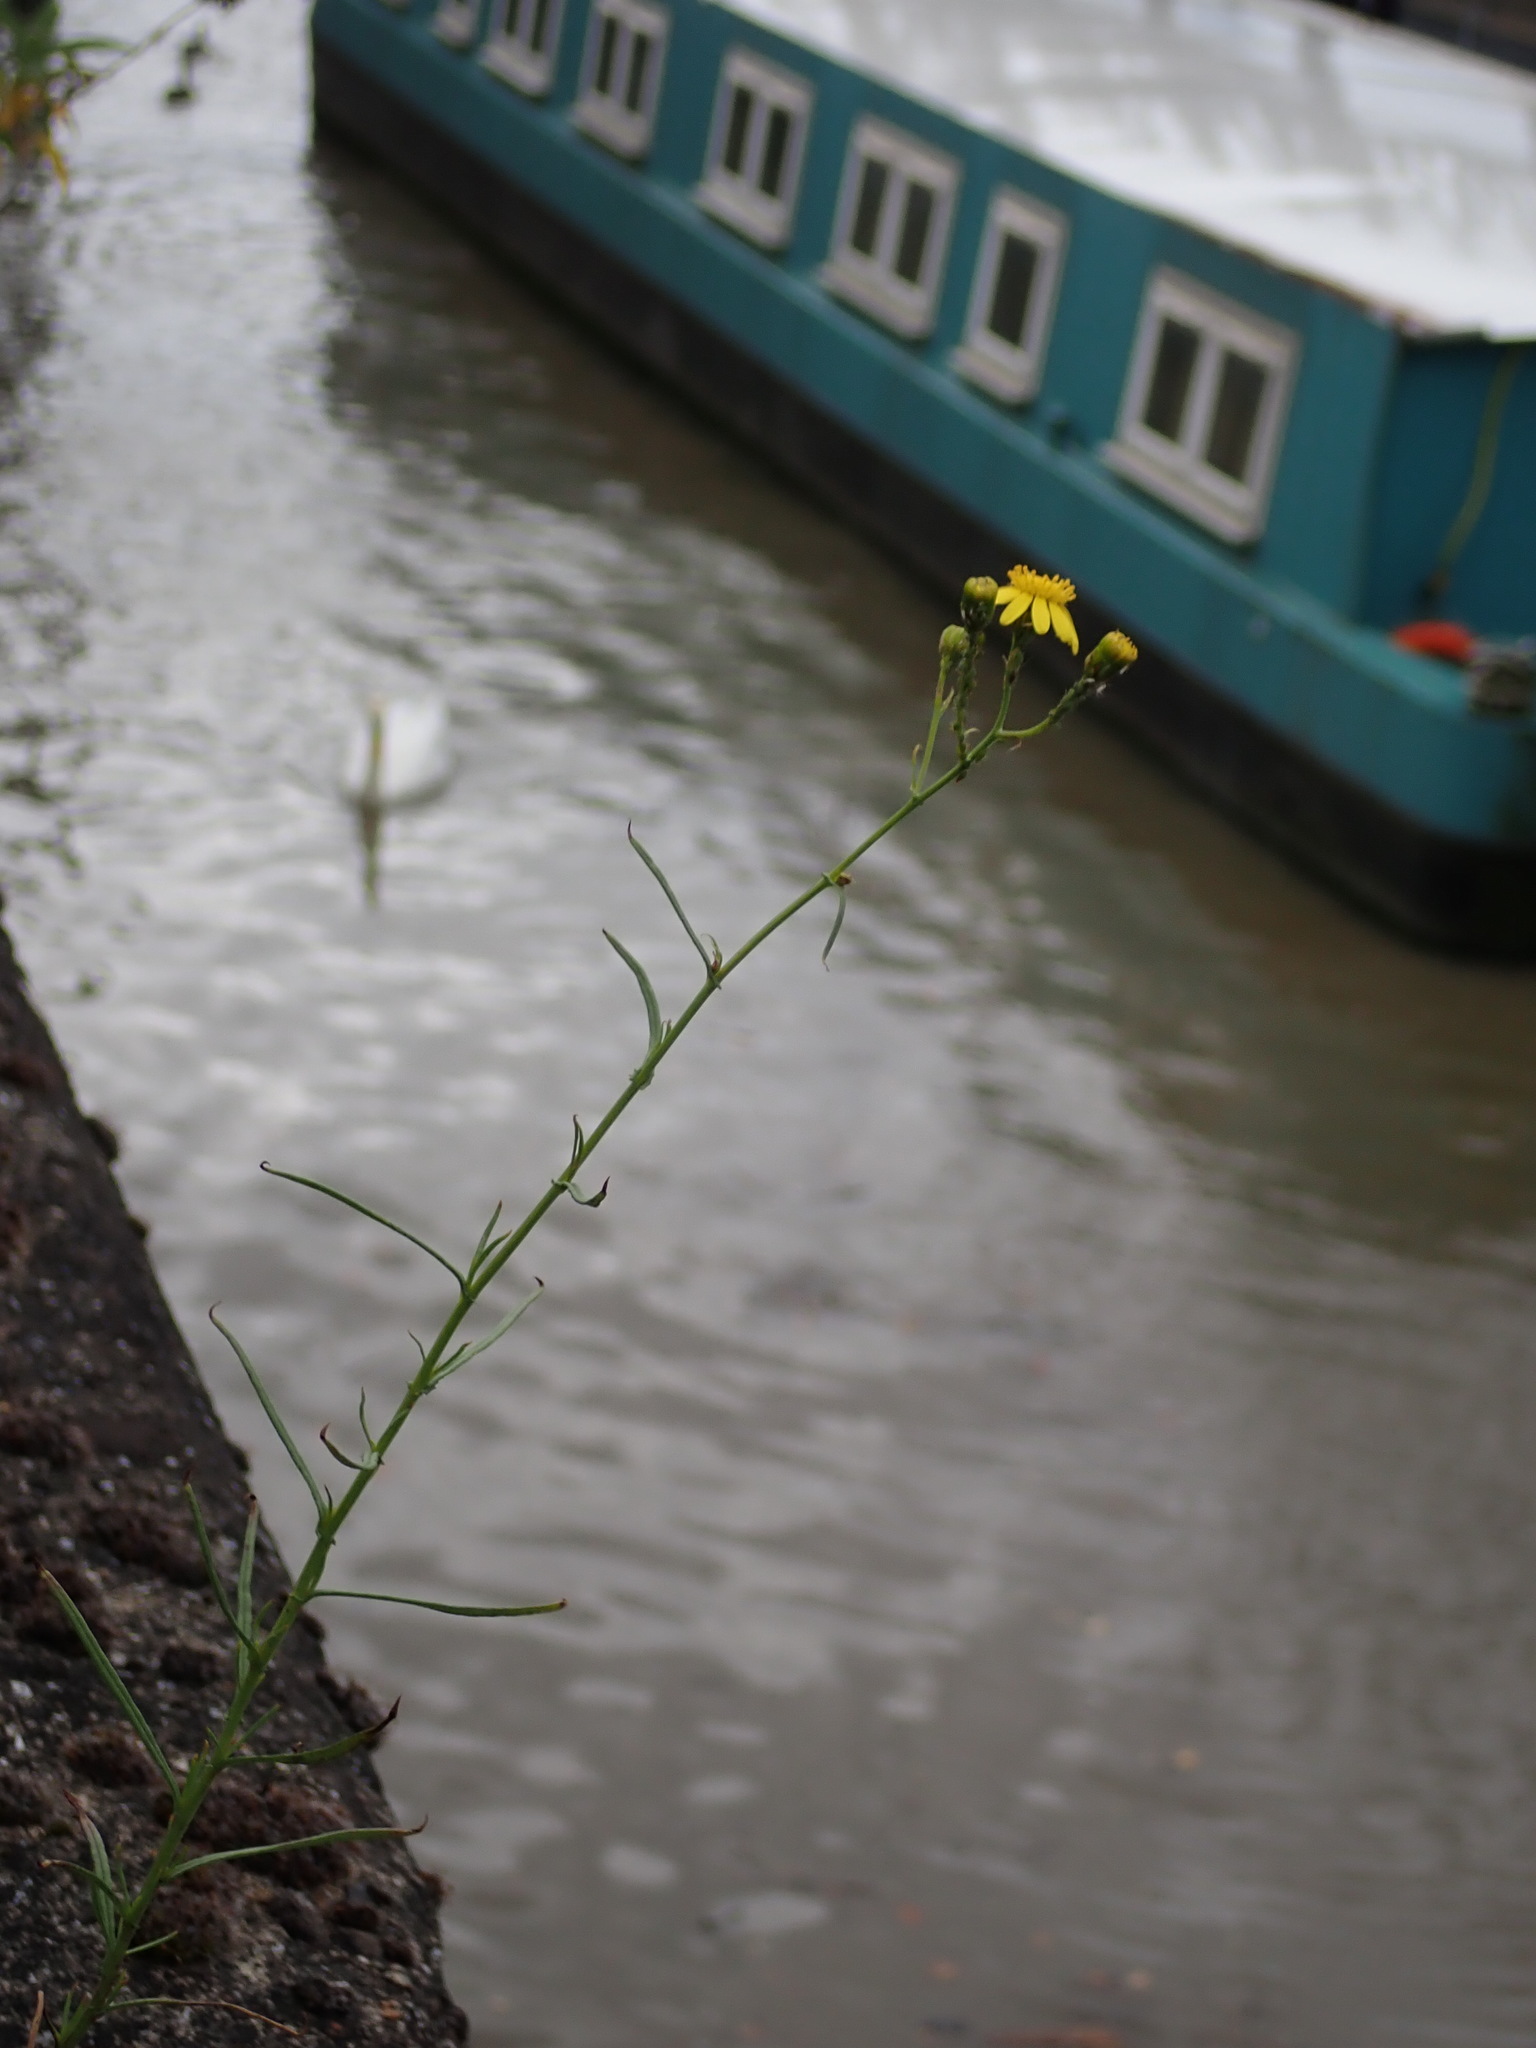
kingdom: Plantae
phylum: Tracheophyta
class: Magnoliopsida
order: Asterales
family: Asteraceae
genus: Senecio
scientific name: Senecio inaequidens
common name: Narrow-leaved ragwort
